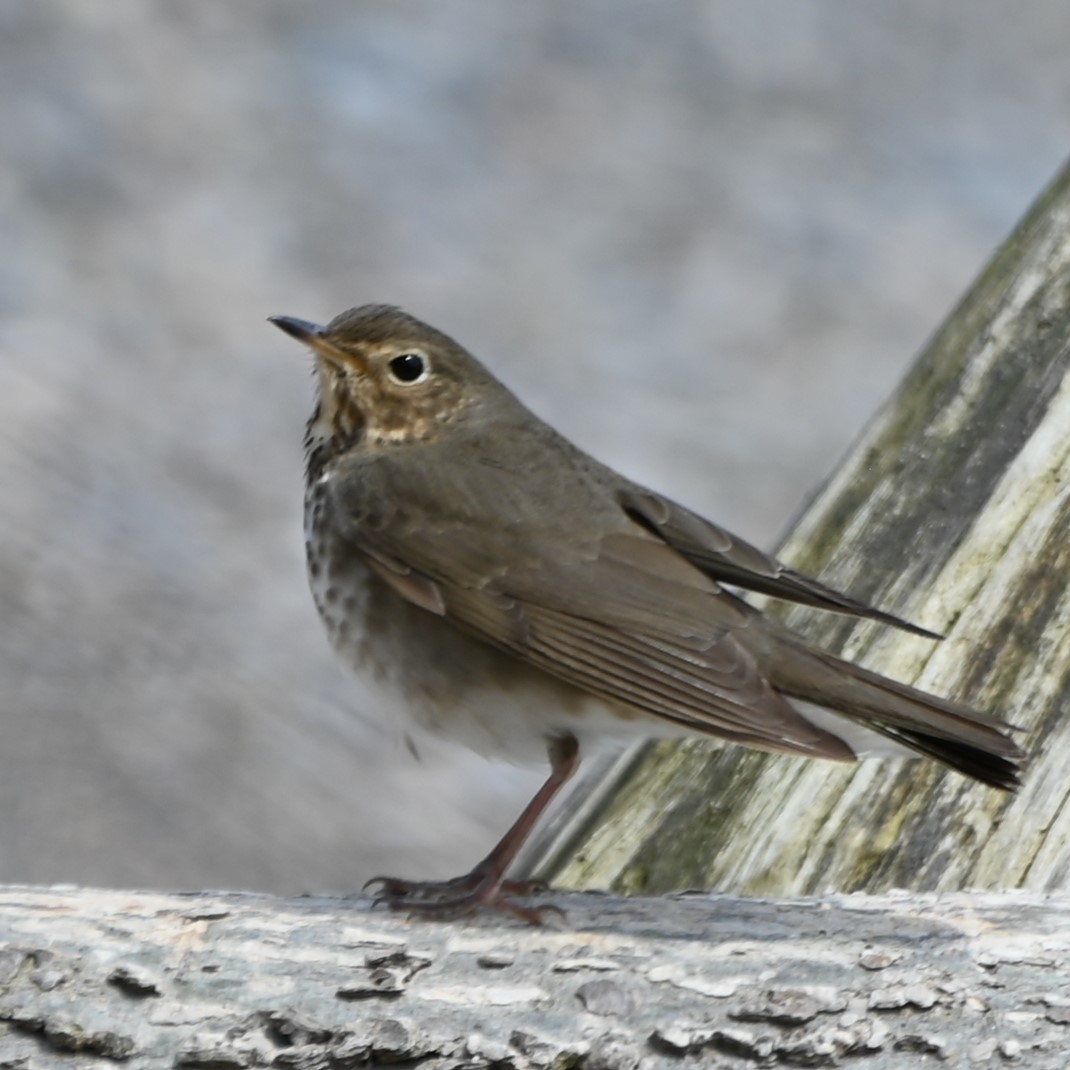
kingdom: Animalia
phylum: Chordata
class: Aves
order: Passeriformes
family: Turdidae
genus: Catharus
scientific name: Catharus ustulatus
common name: Swainson's thrush
